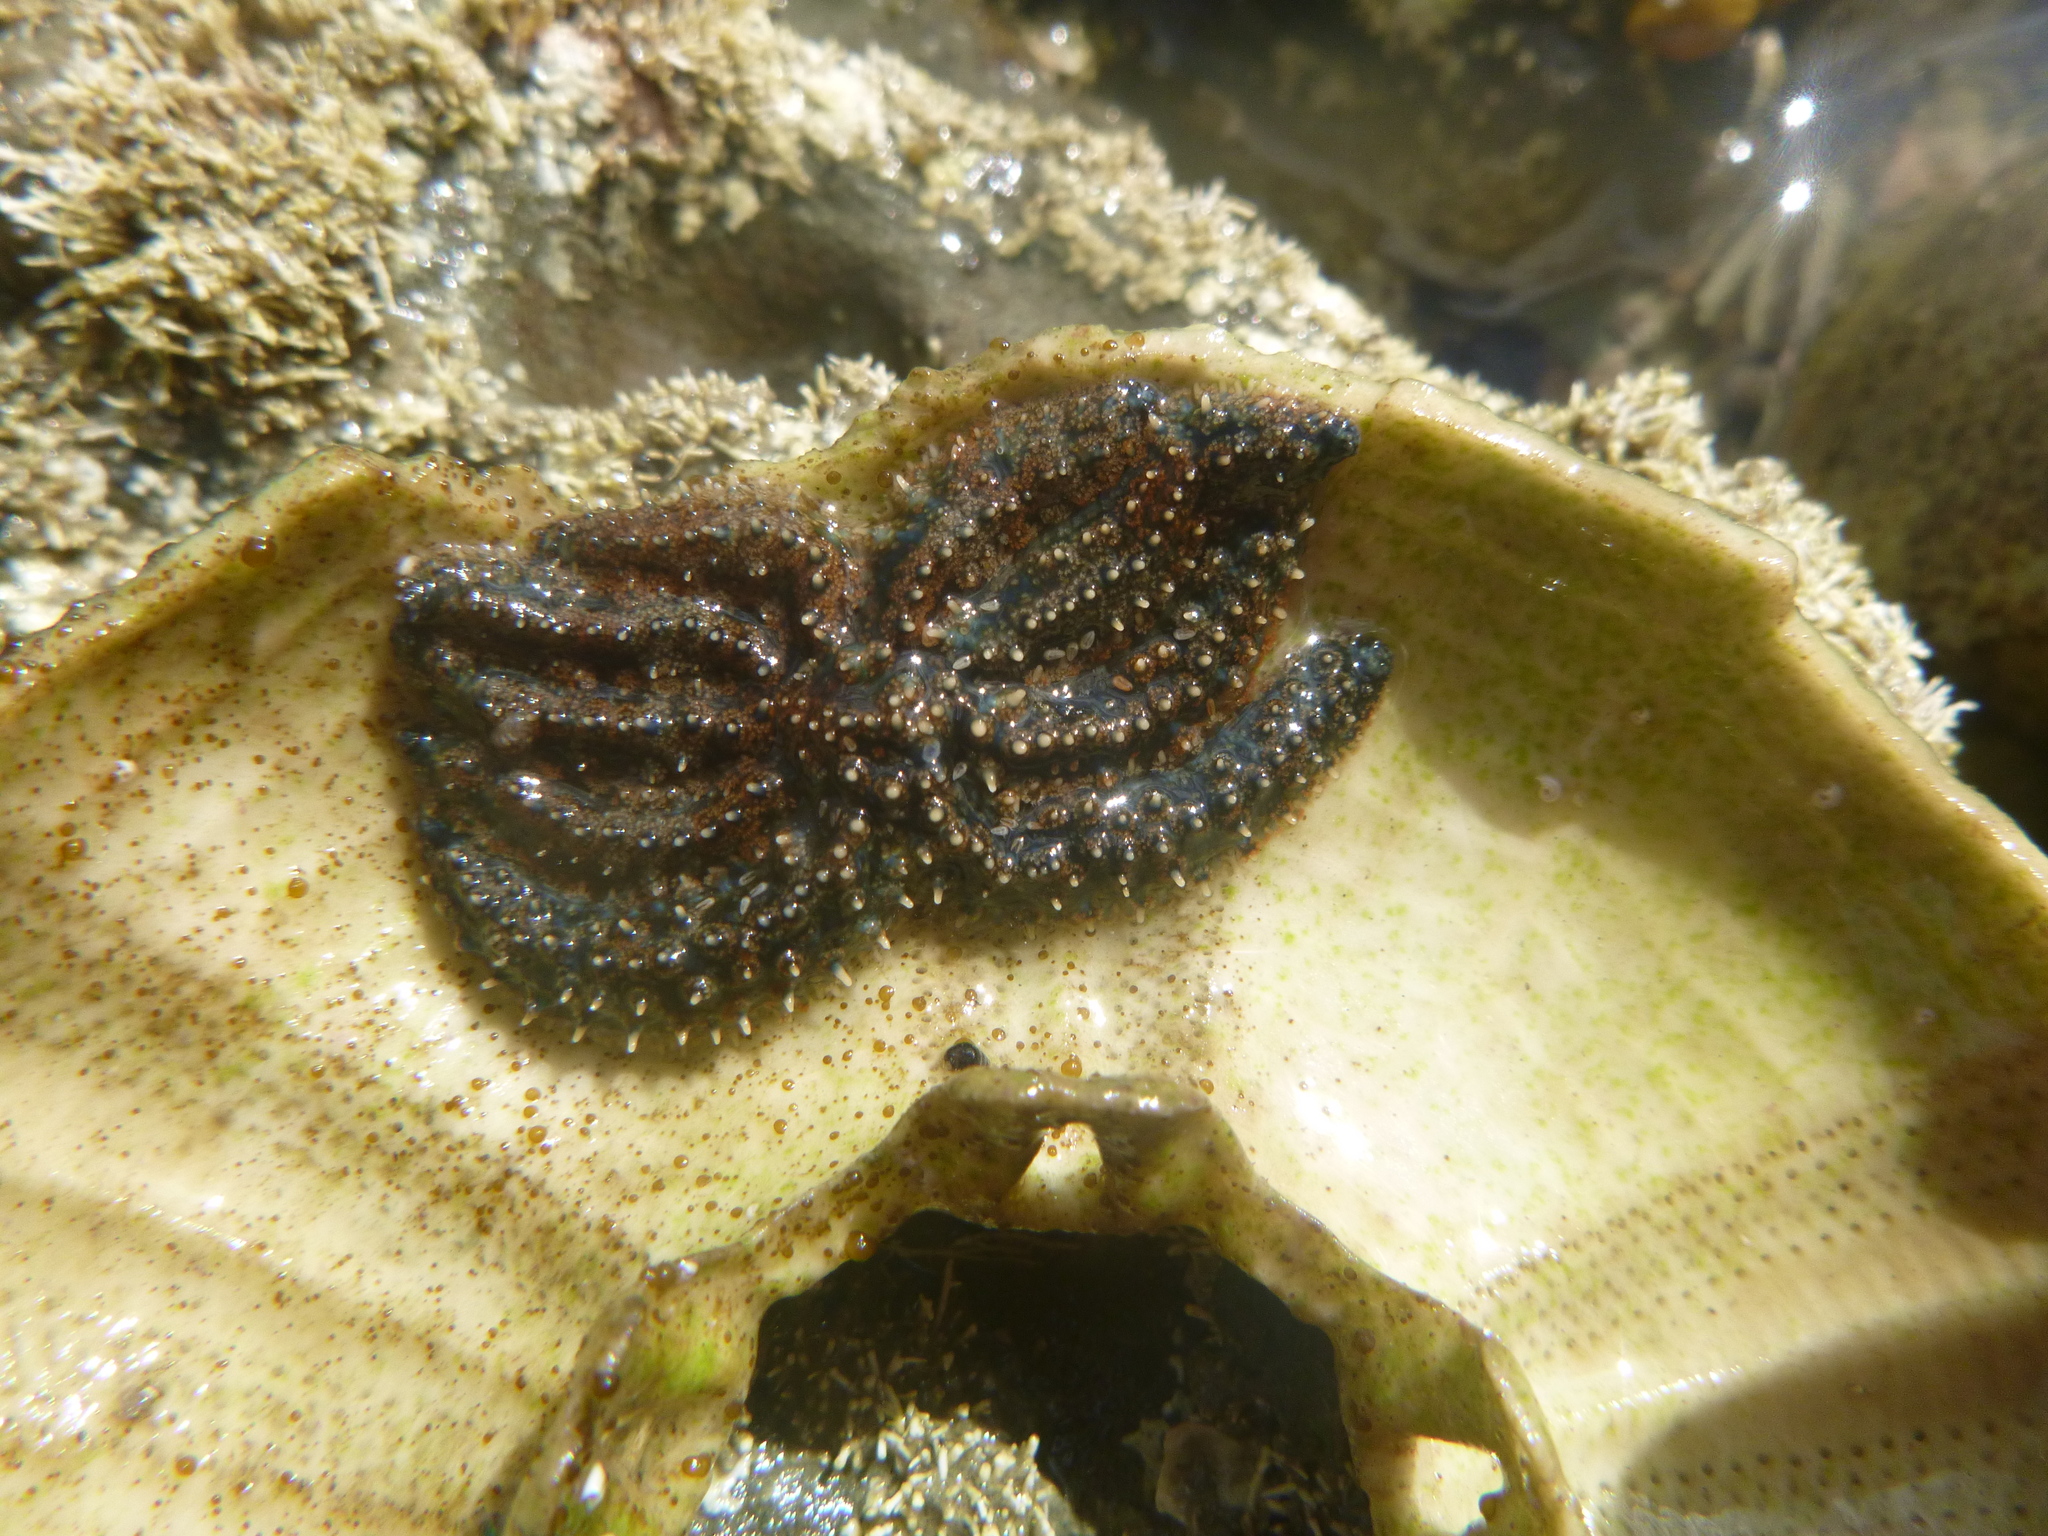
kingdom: Animalia
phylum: Echinodermata
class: Asteroidea
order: Forcipulatida
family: Asteriidae
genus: Coscinasterias
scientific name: Coscinasterias muricata
